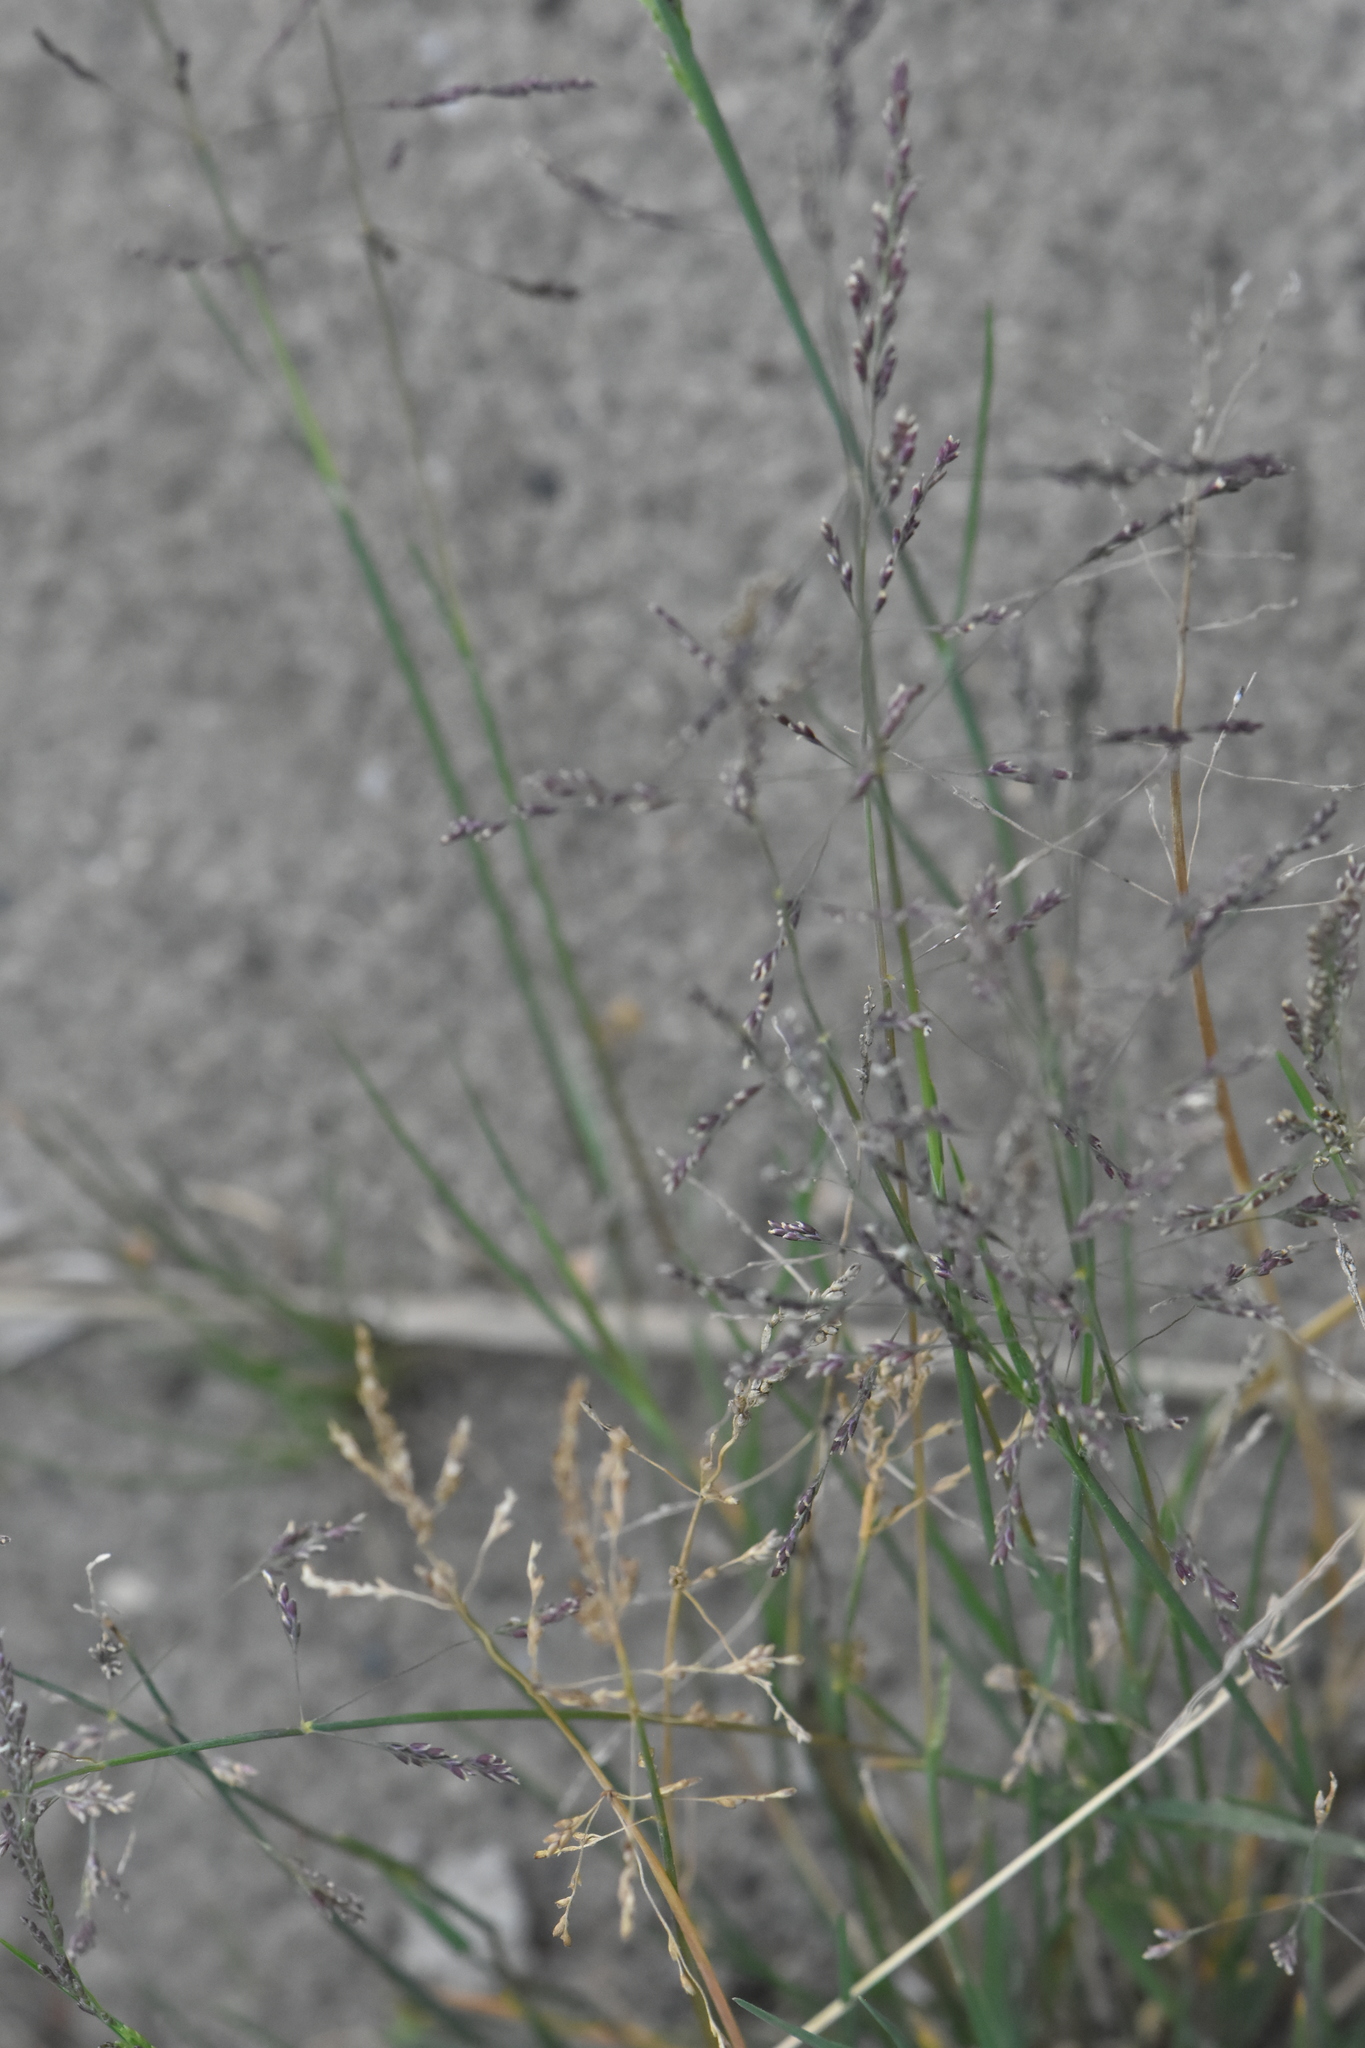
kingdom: Plantae
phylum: Tracheophyta
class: Liliopsida
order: Poales
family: Poaceae
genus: Puccinellia
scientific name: Puccinellia distans
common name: Weeping alkaligrass
